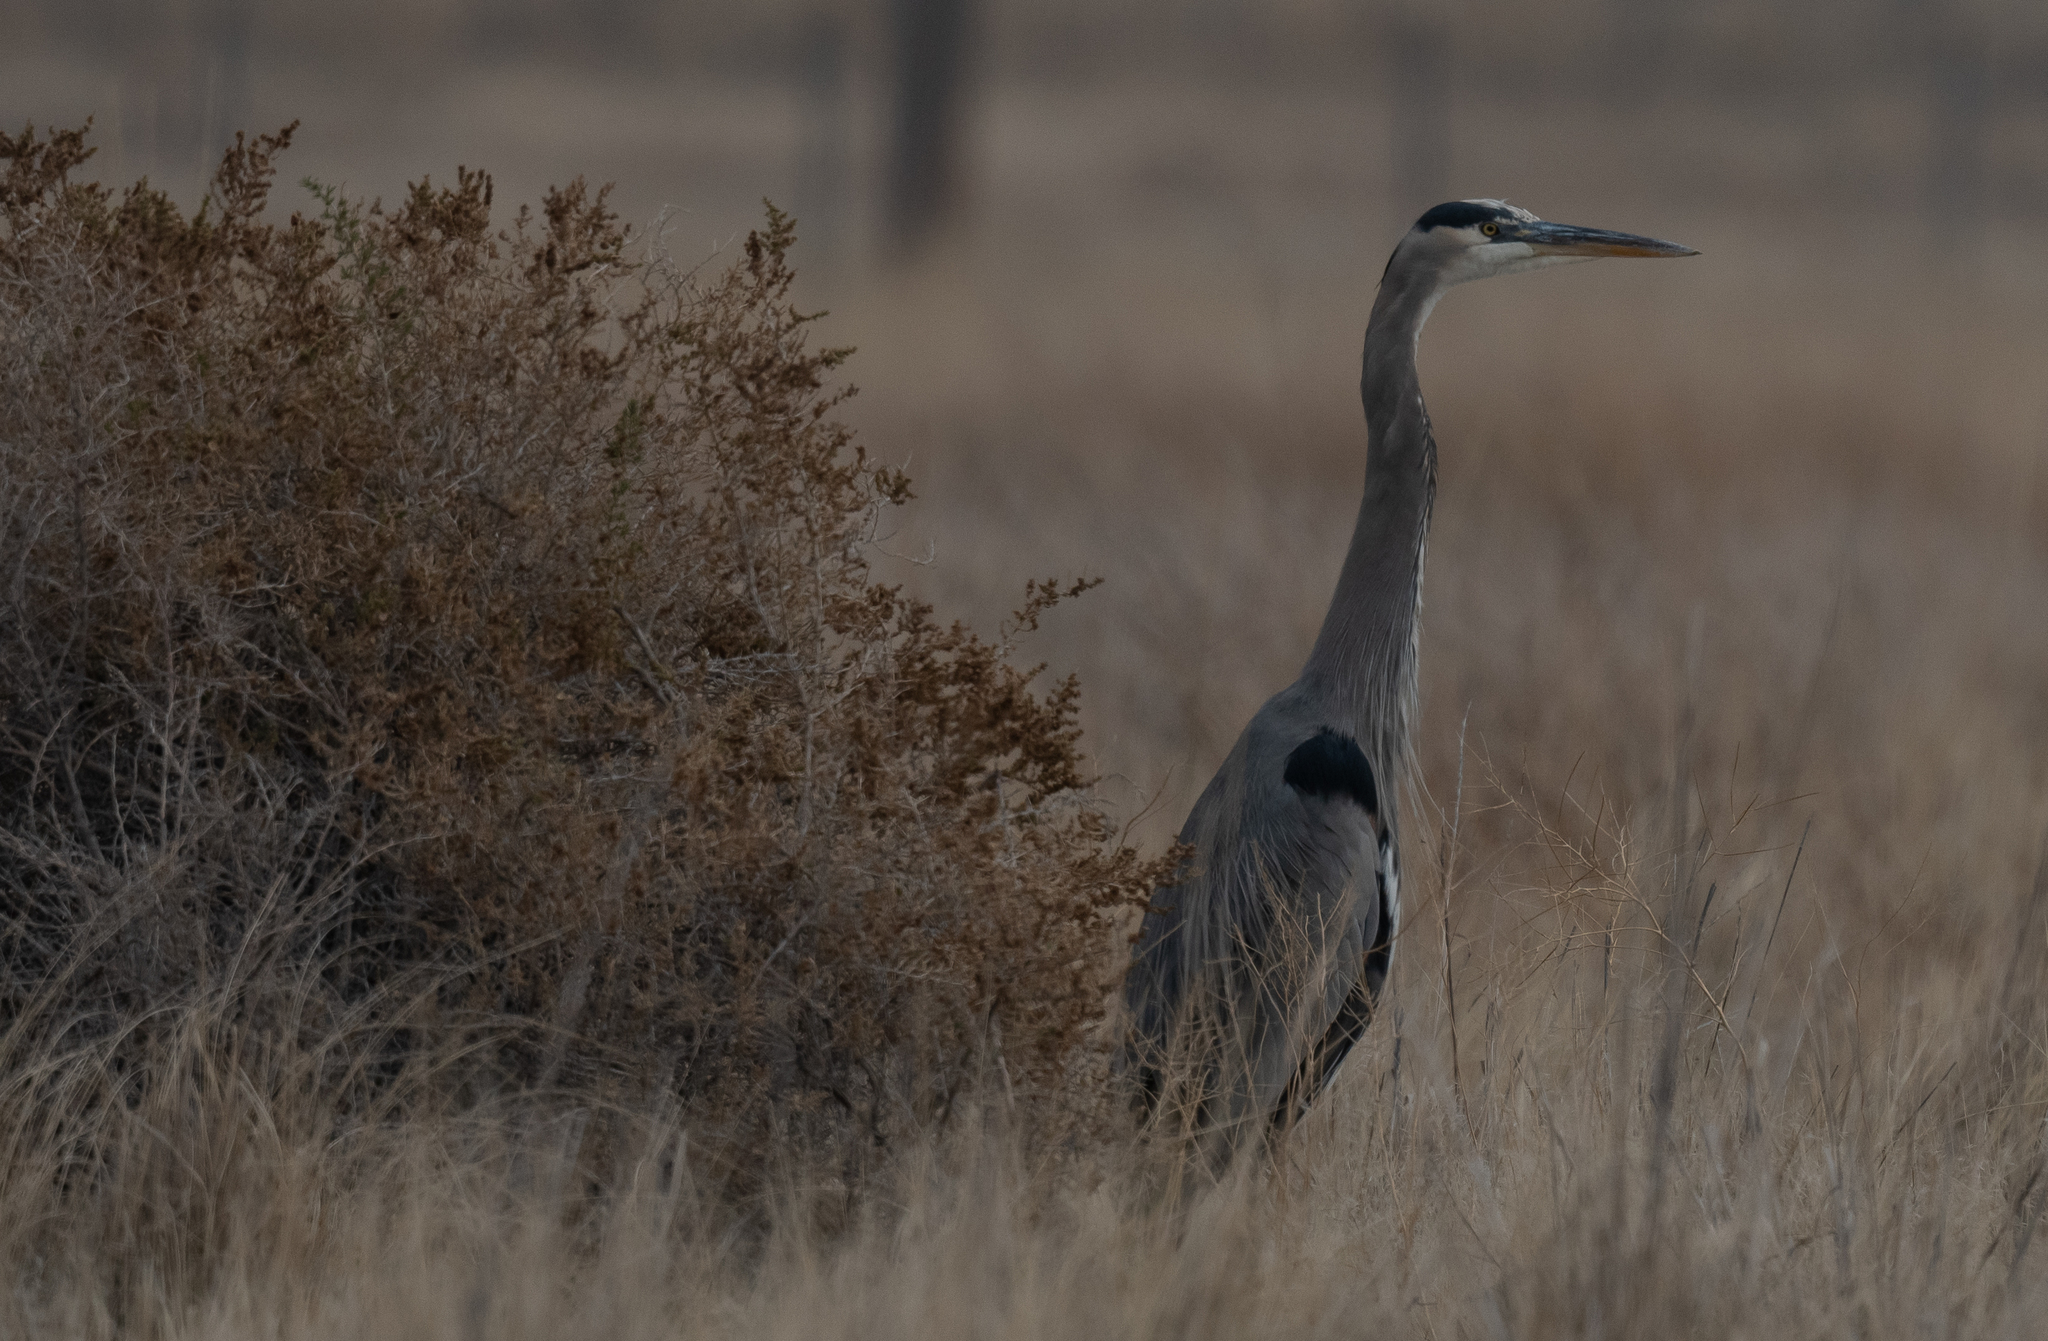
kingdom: Animalia
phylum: Chordata
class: Aves
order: Pelecaniformes
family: Ardeidae
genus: Ardea
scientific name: Ardea herodias
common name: Great blue heron
